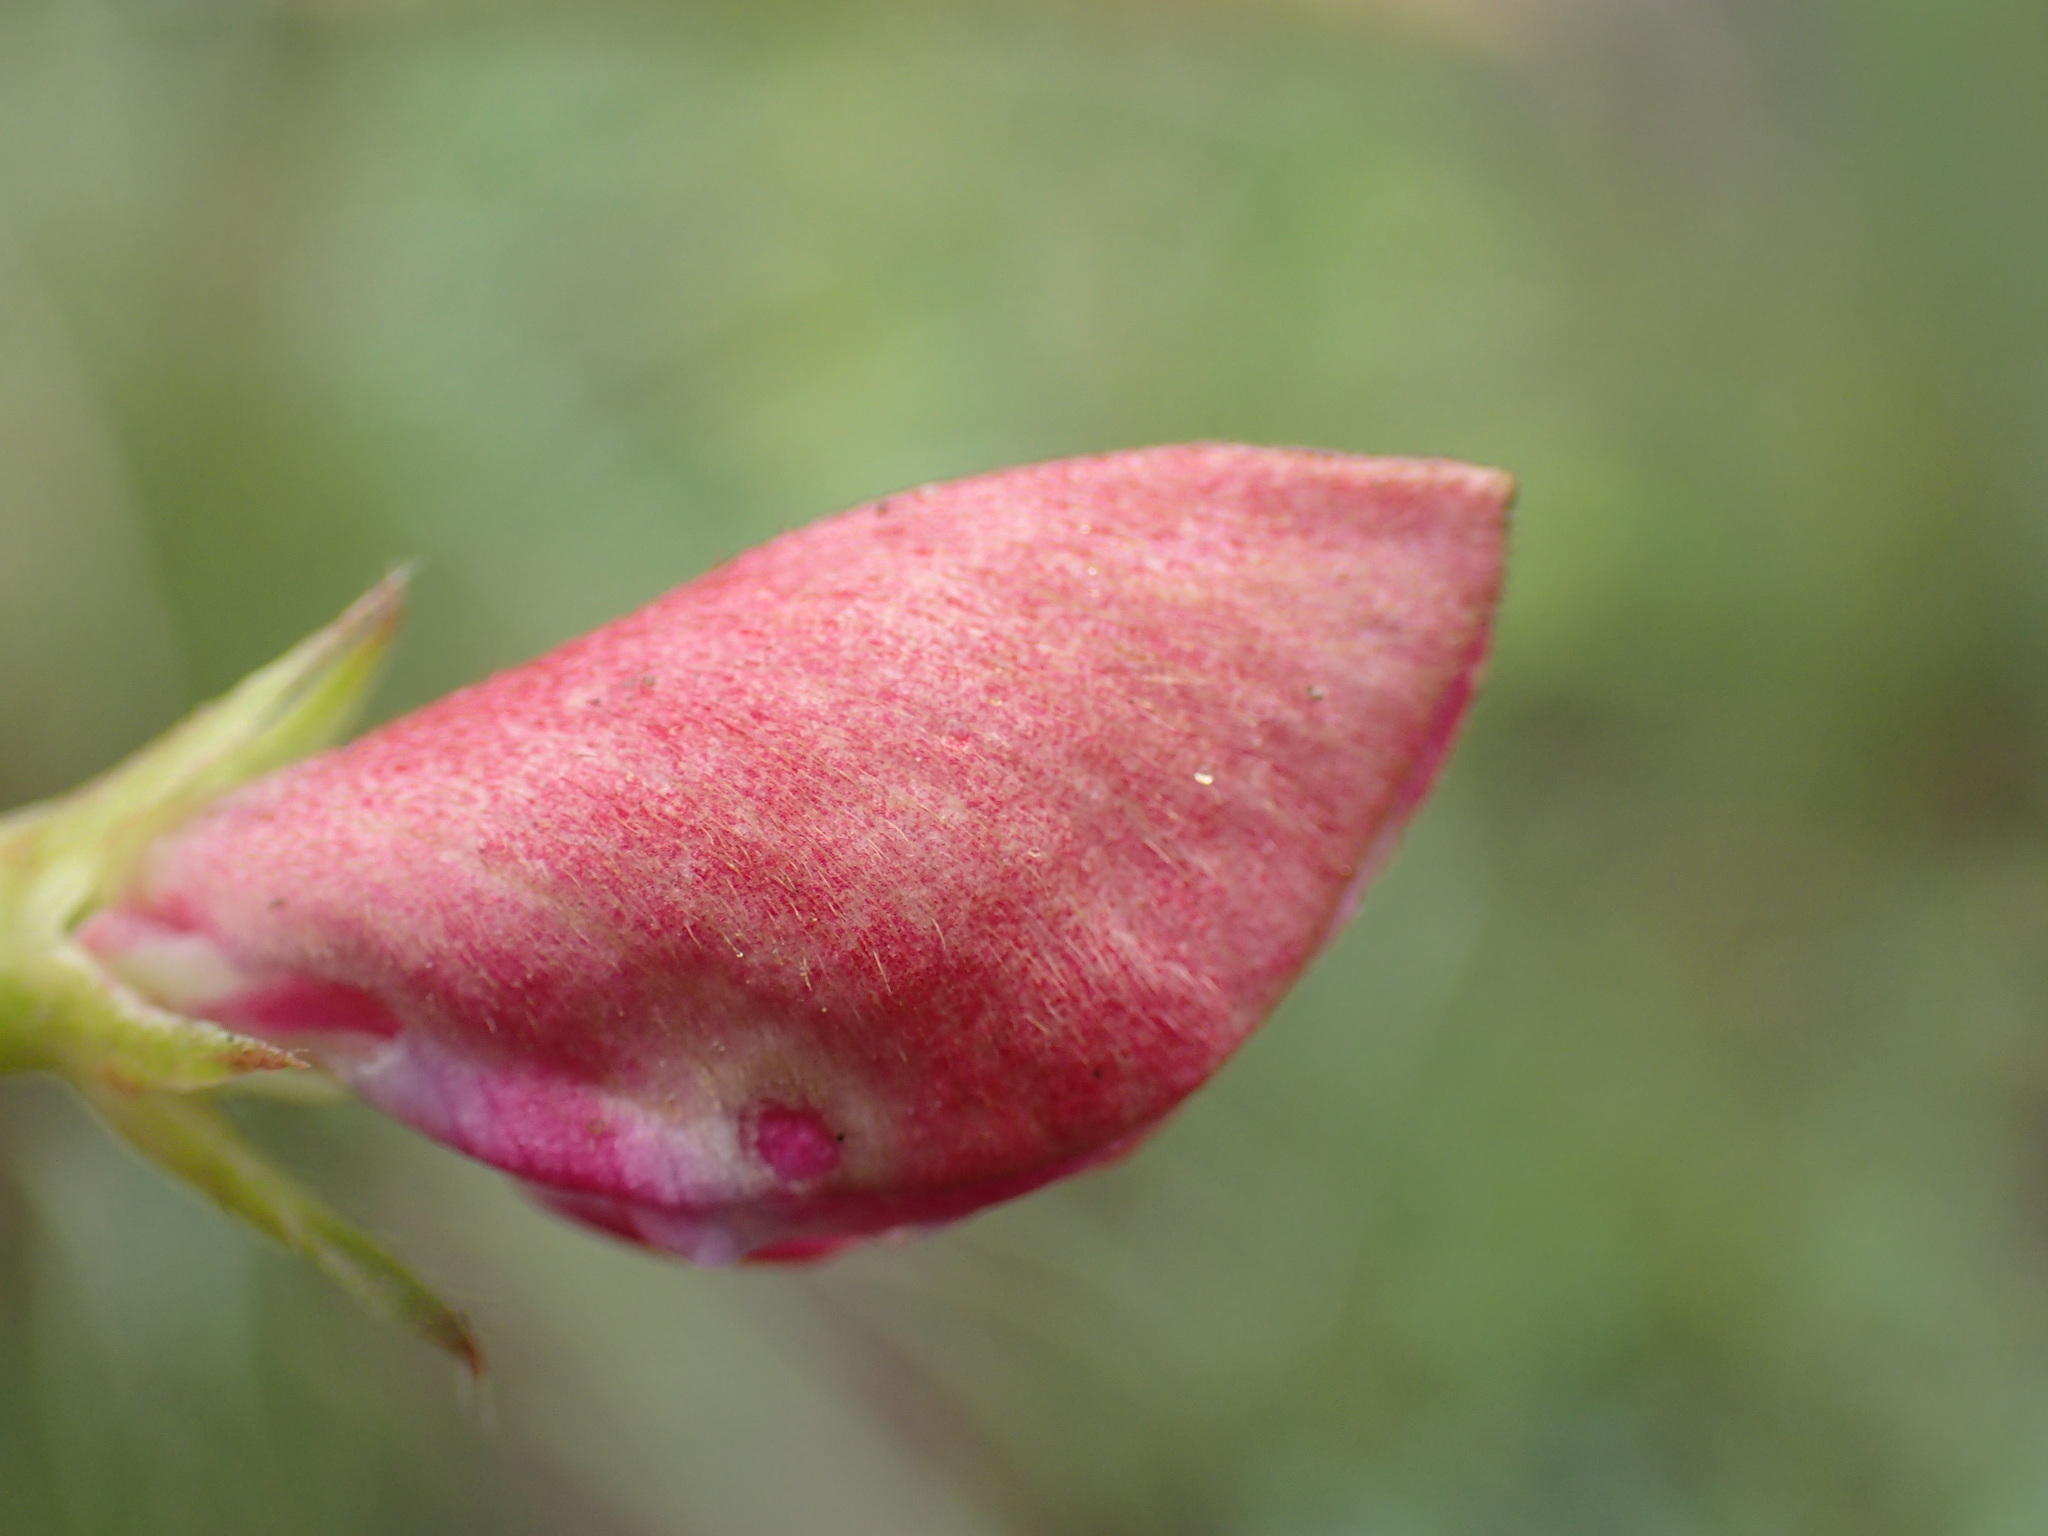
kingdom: Plantae
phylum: Tracheophyta
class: Magnoliopsida
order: Fabales
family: Fabaceae
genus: Tephrosia
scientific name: Tephrosia macropoda
